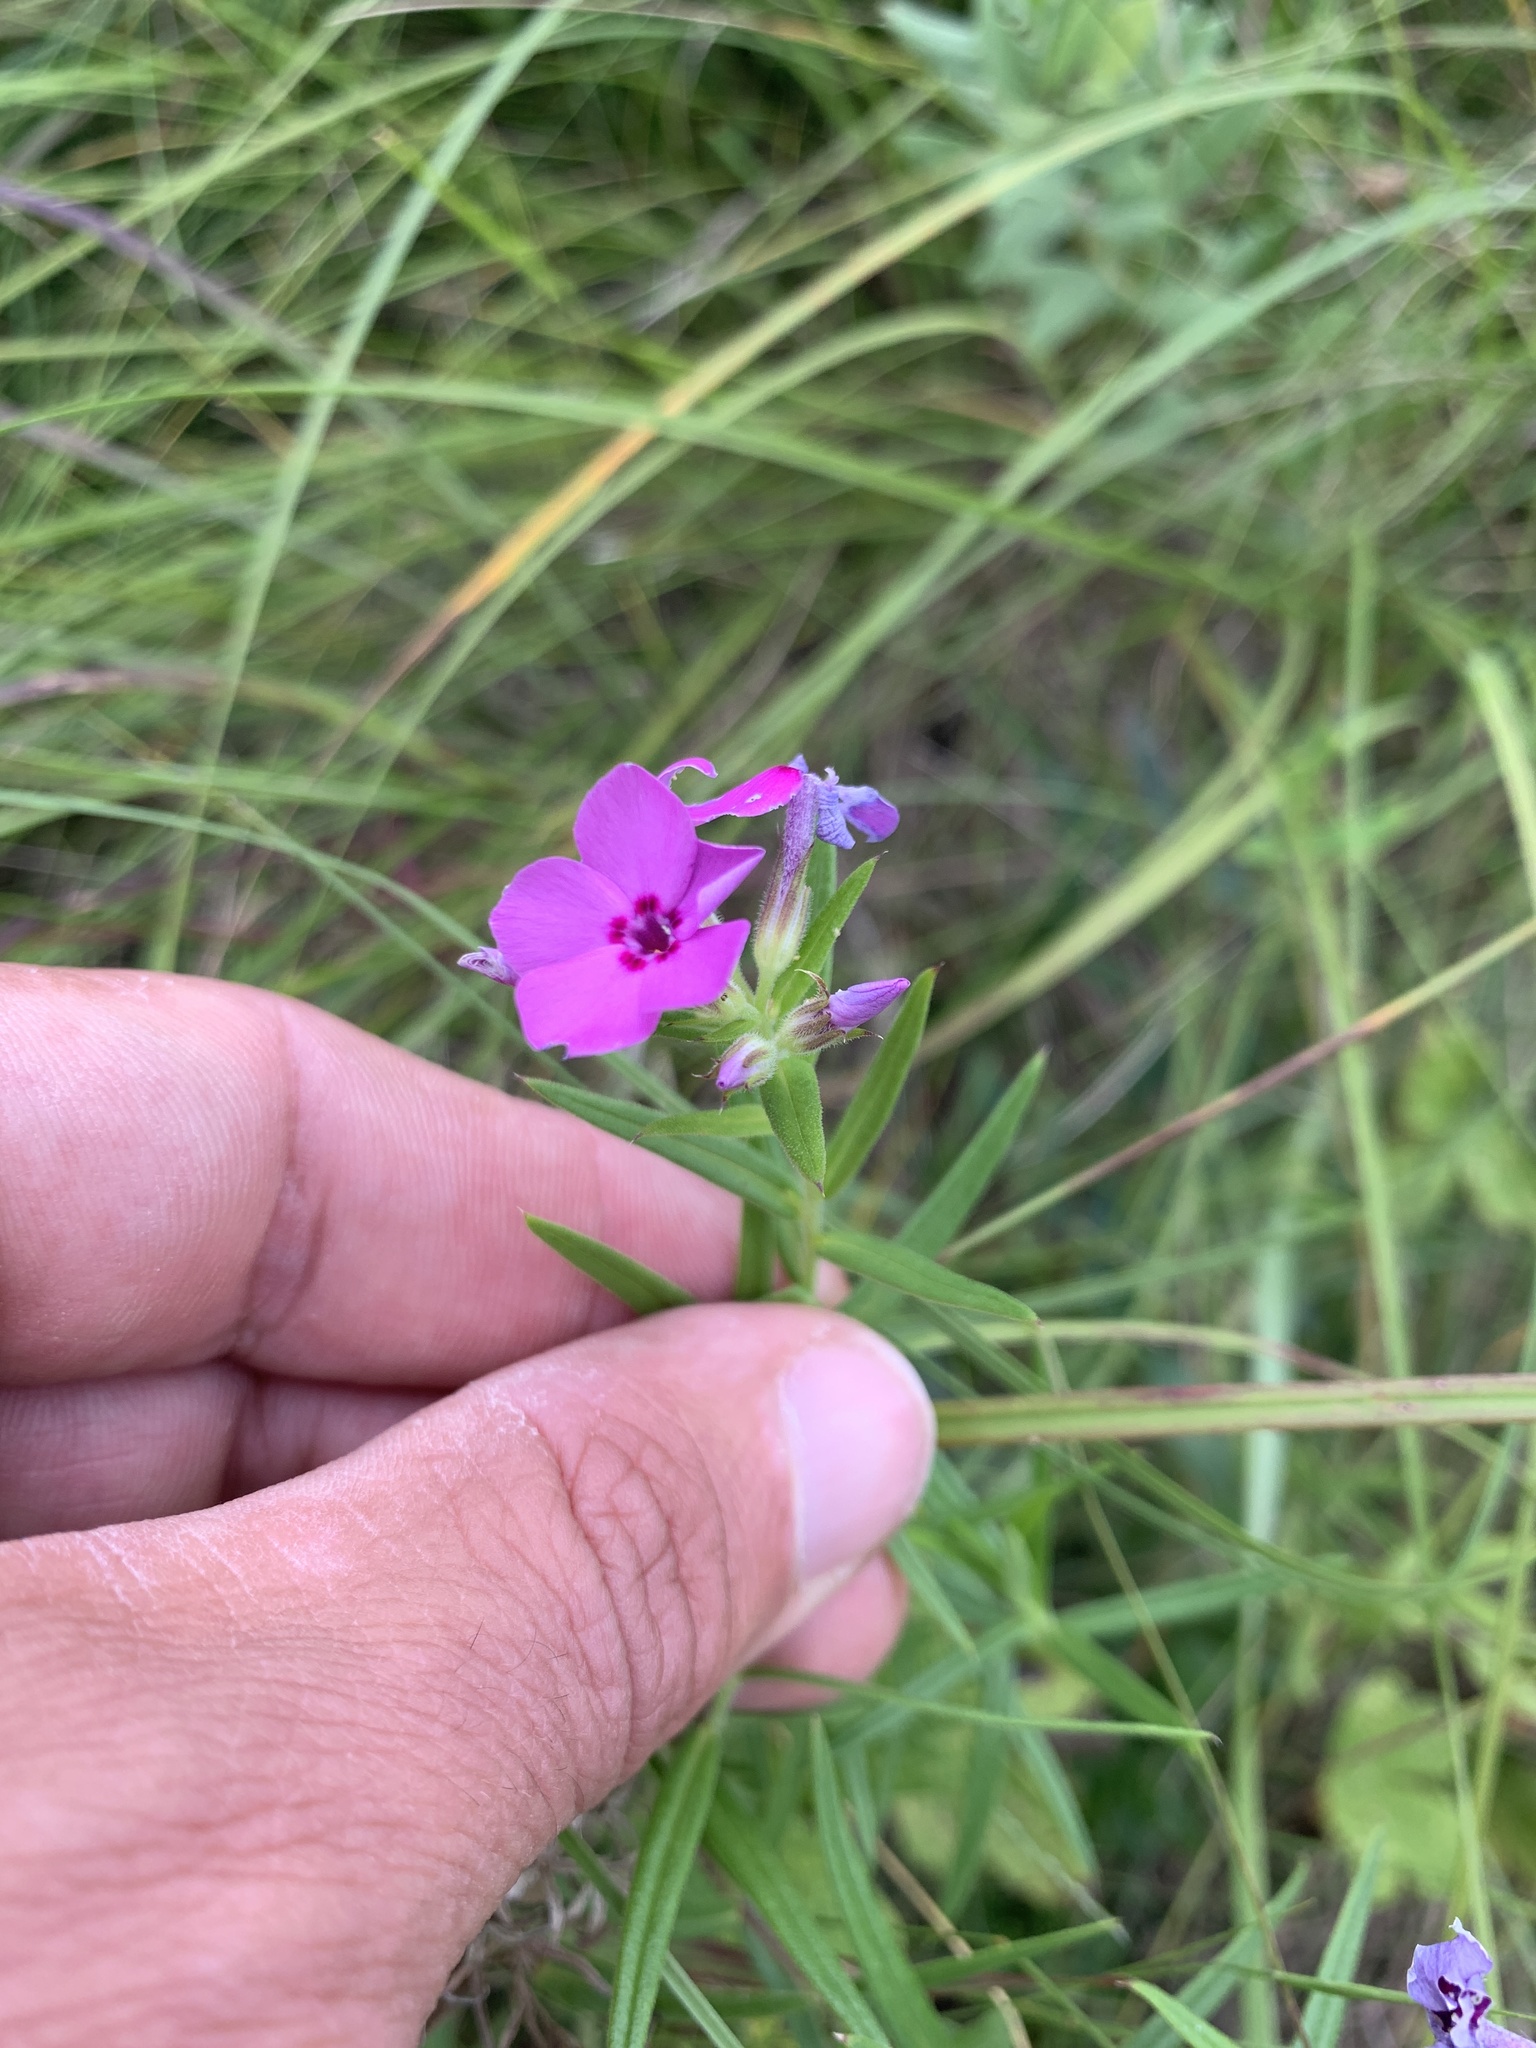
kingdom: Plantae
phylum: Tracheophyta
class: Magnoliopsida
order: Ericales
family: Polemoniaceae
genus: Phlox
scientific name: Phlox pilosa
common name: Prairie phlox
